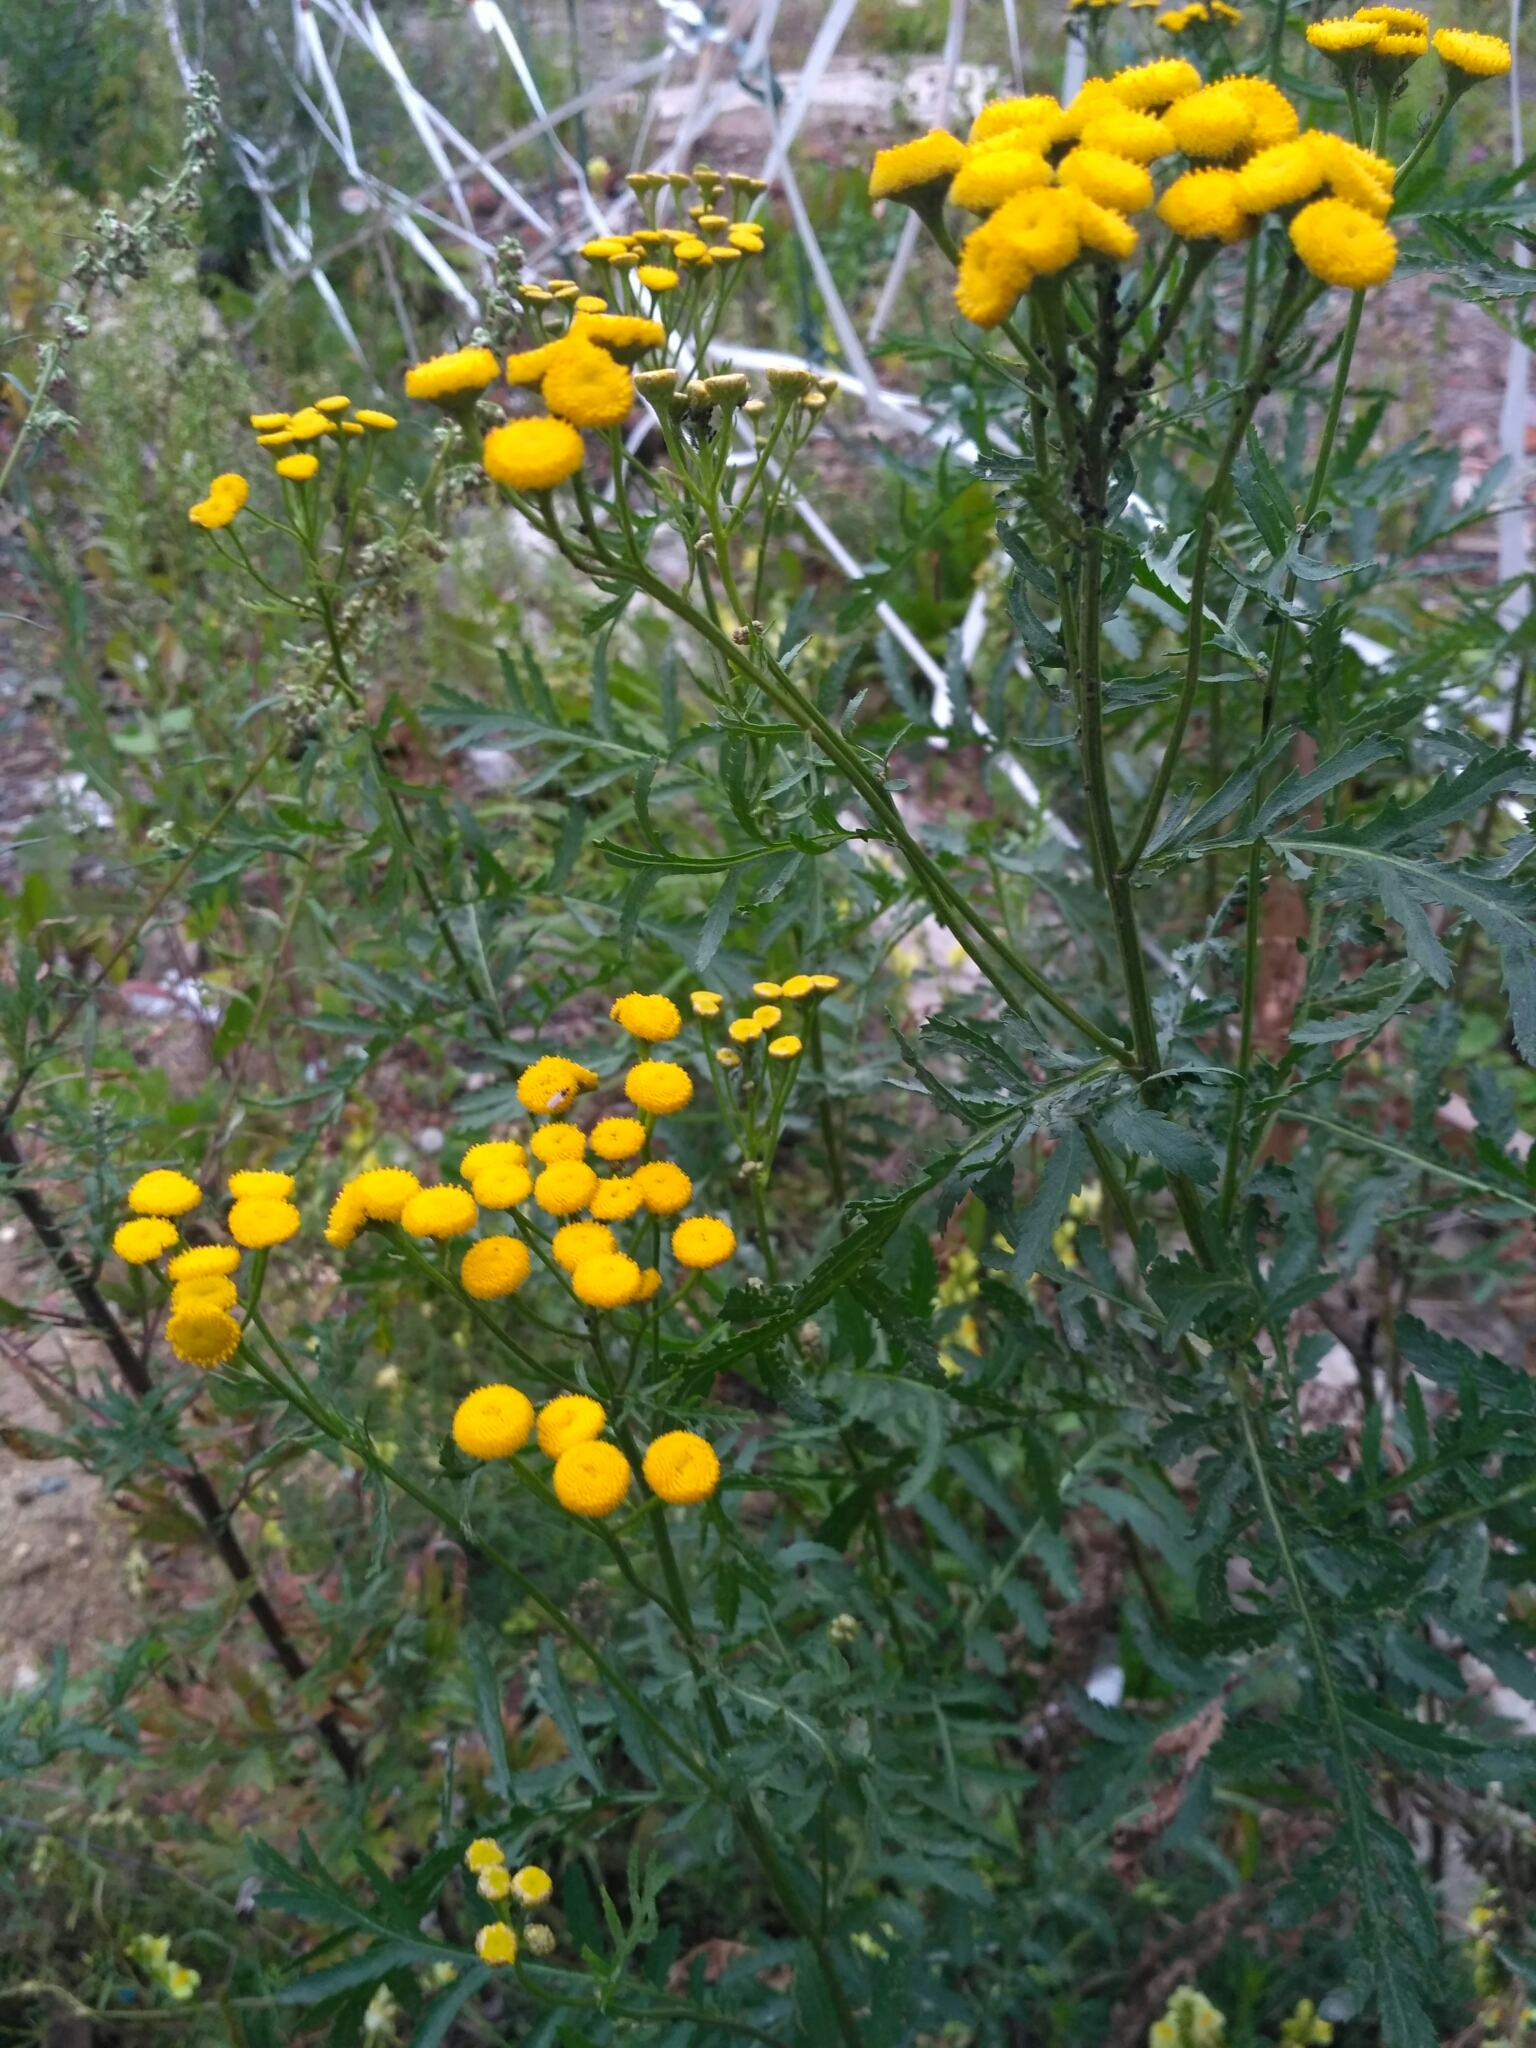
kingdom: Plantae
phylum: Tracheophyta
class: Magnoliopsida
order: Asterales
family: Asteraceae
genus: Tanacetum
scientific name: Tanacetum vulgare
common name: Common tansy
